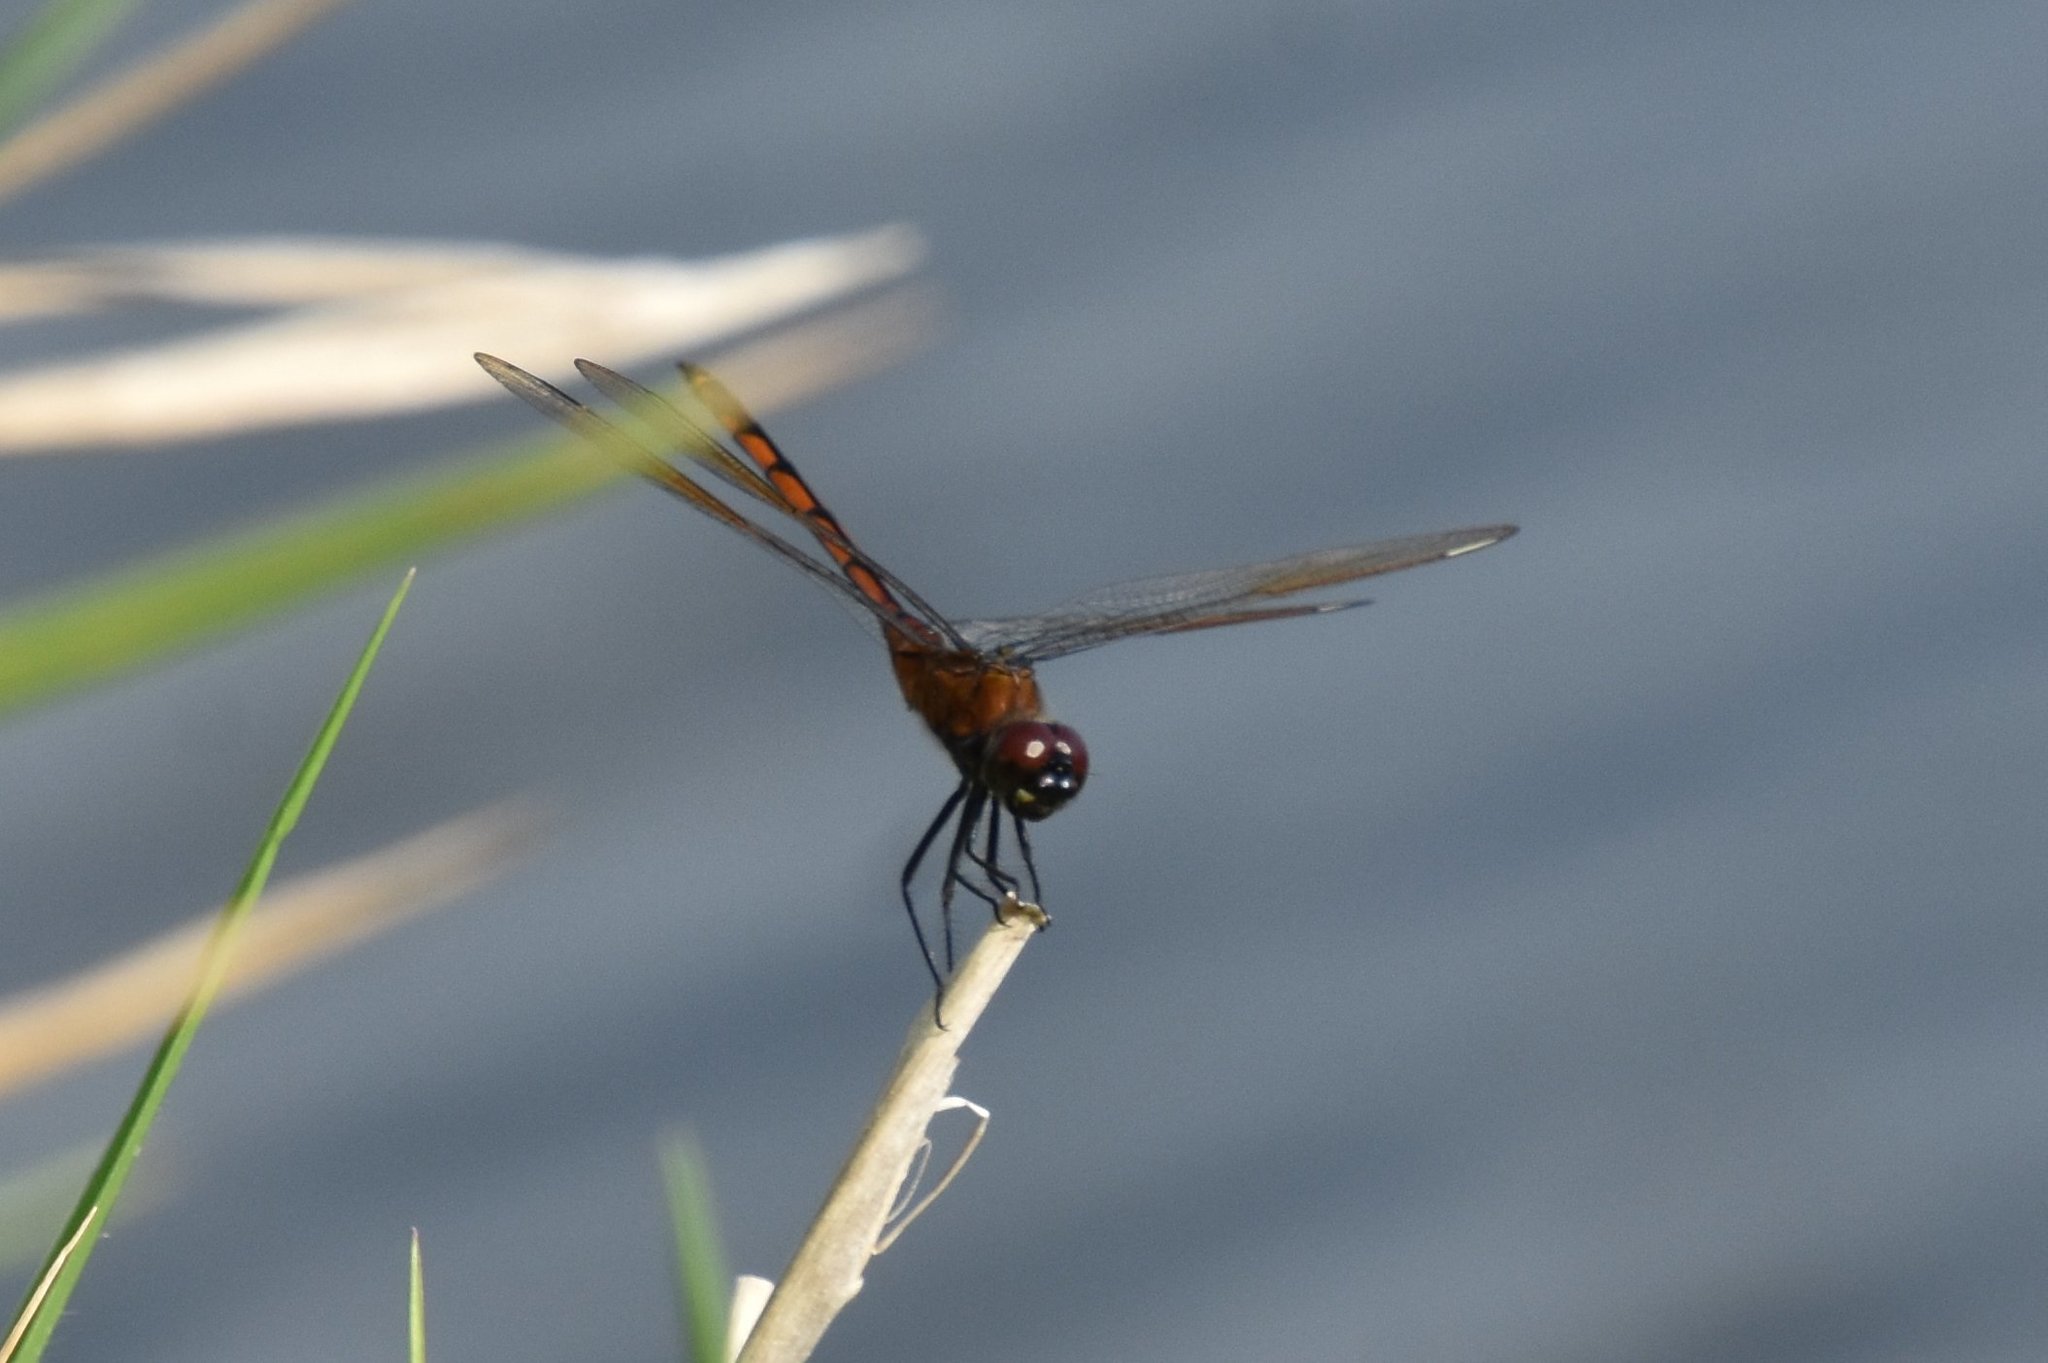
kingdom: Animalia
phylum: Arthropoda
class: Insecta
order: Odonata
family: Libellulidae
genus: Brachymesia
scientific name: Brachymesia gravida
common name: Four-spotted pennant
